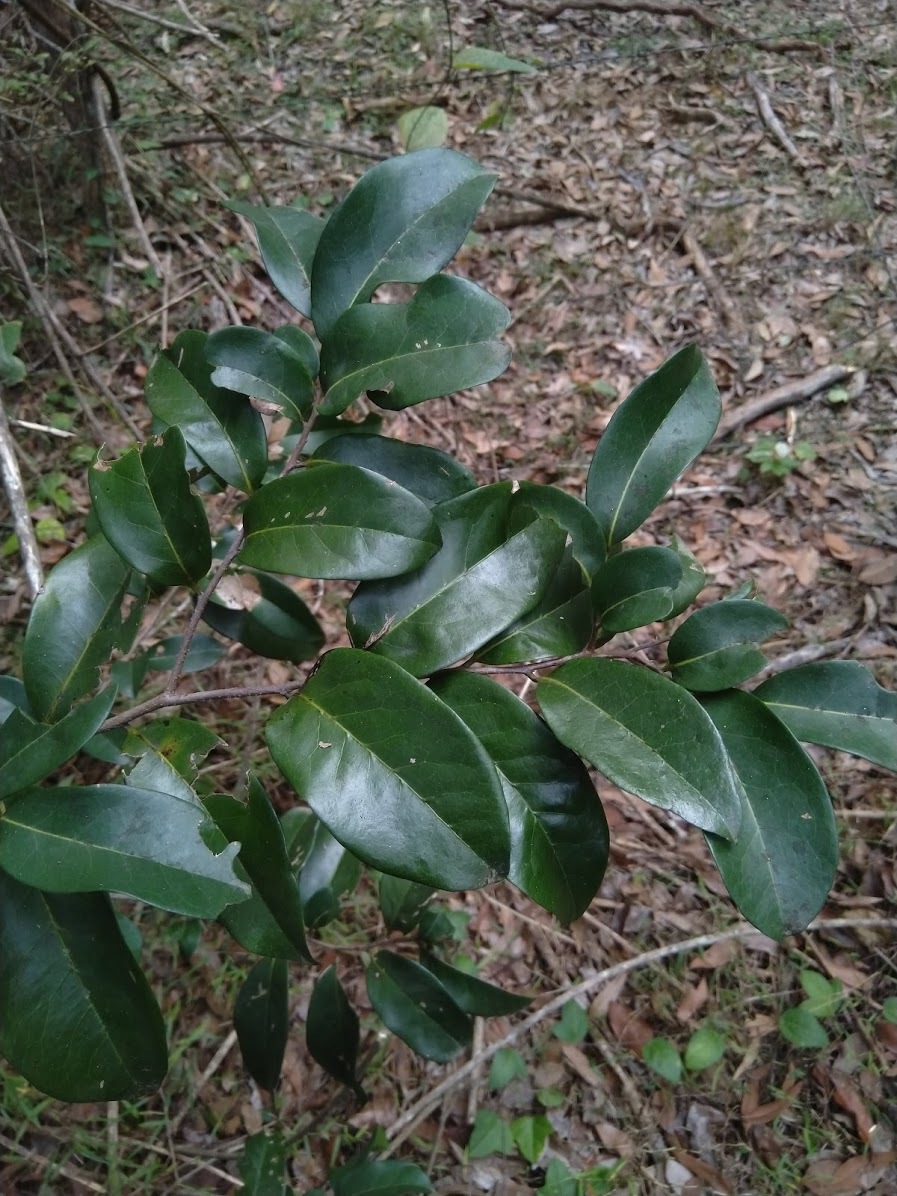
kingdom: Plantae
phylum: Tracheophyta
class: Magnoliopsida
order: Magnoliales
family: Annonaceae
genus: Hubera
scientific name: Hubera nitidissima
